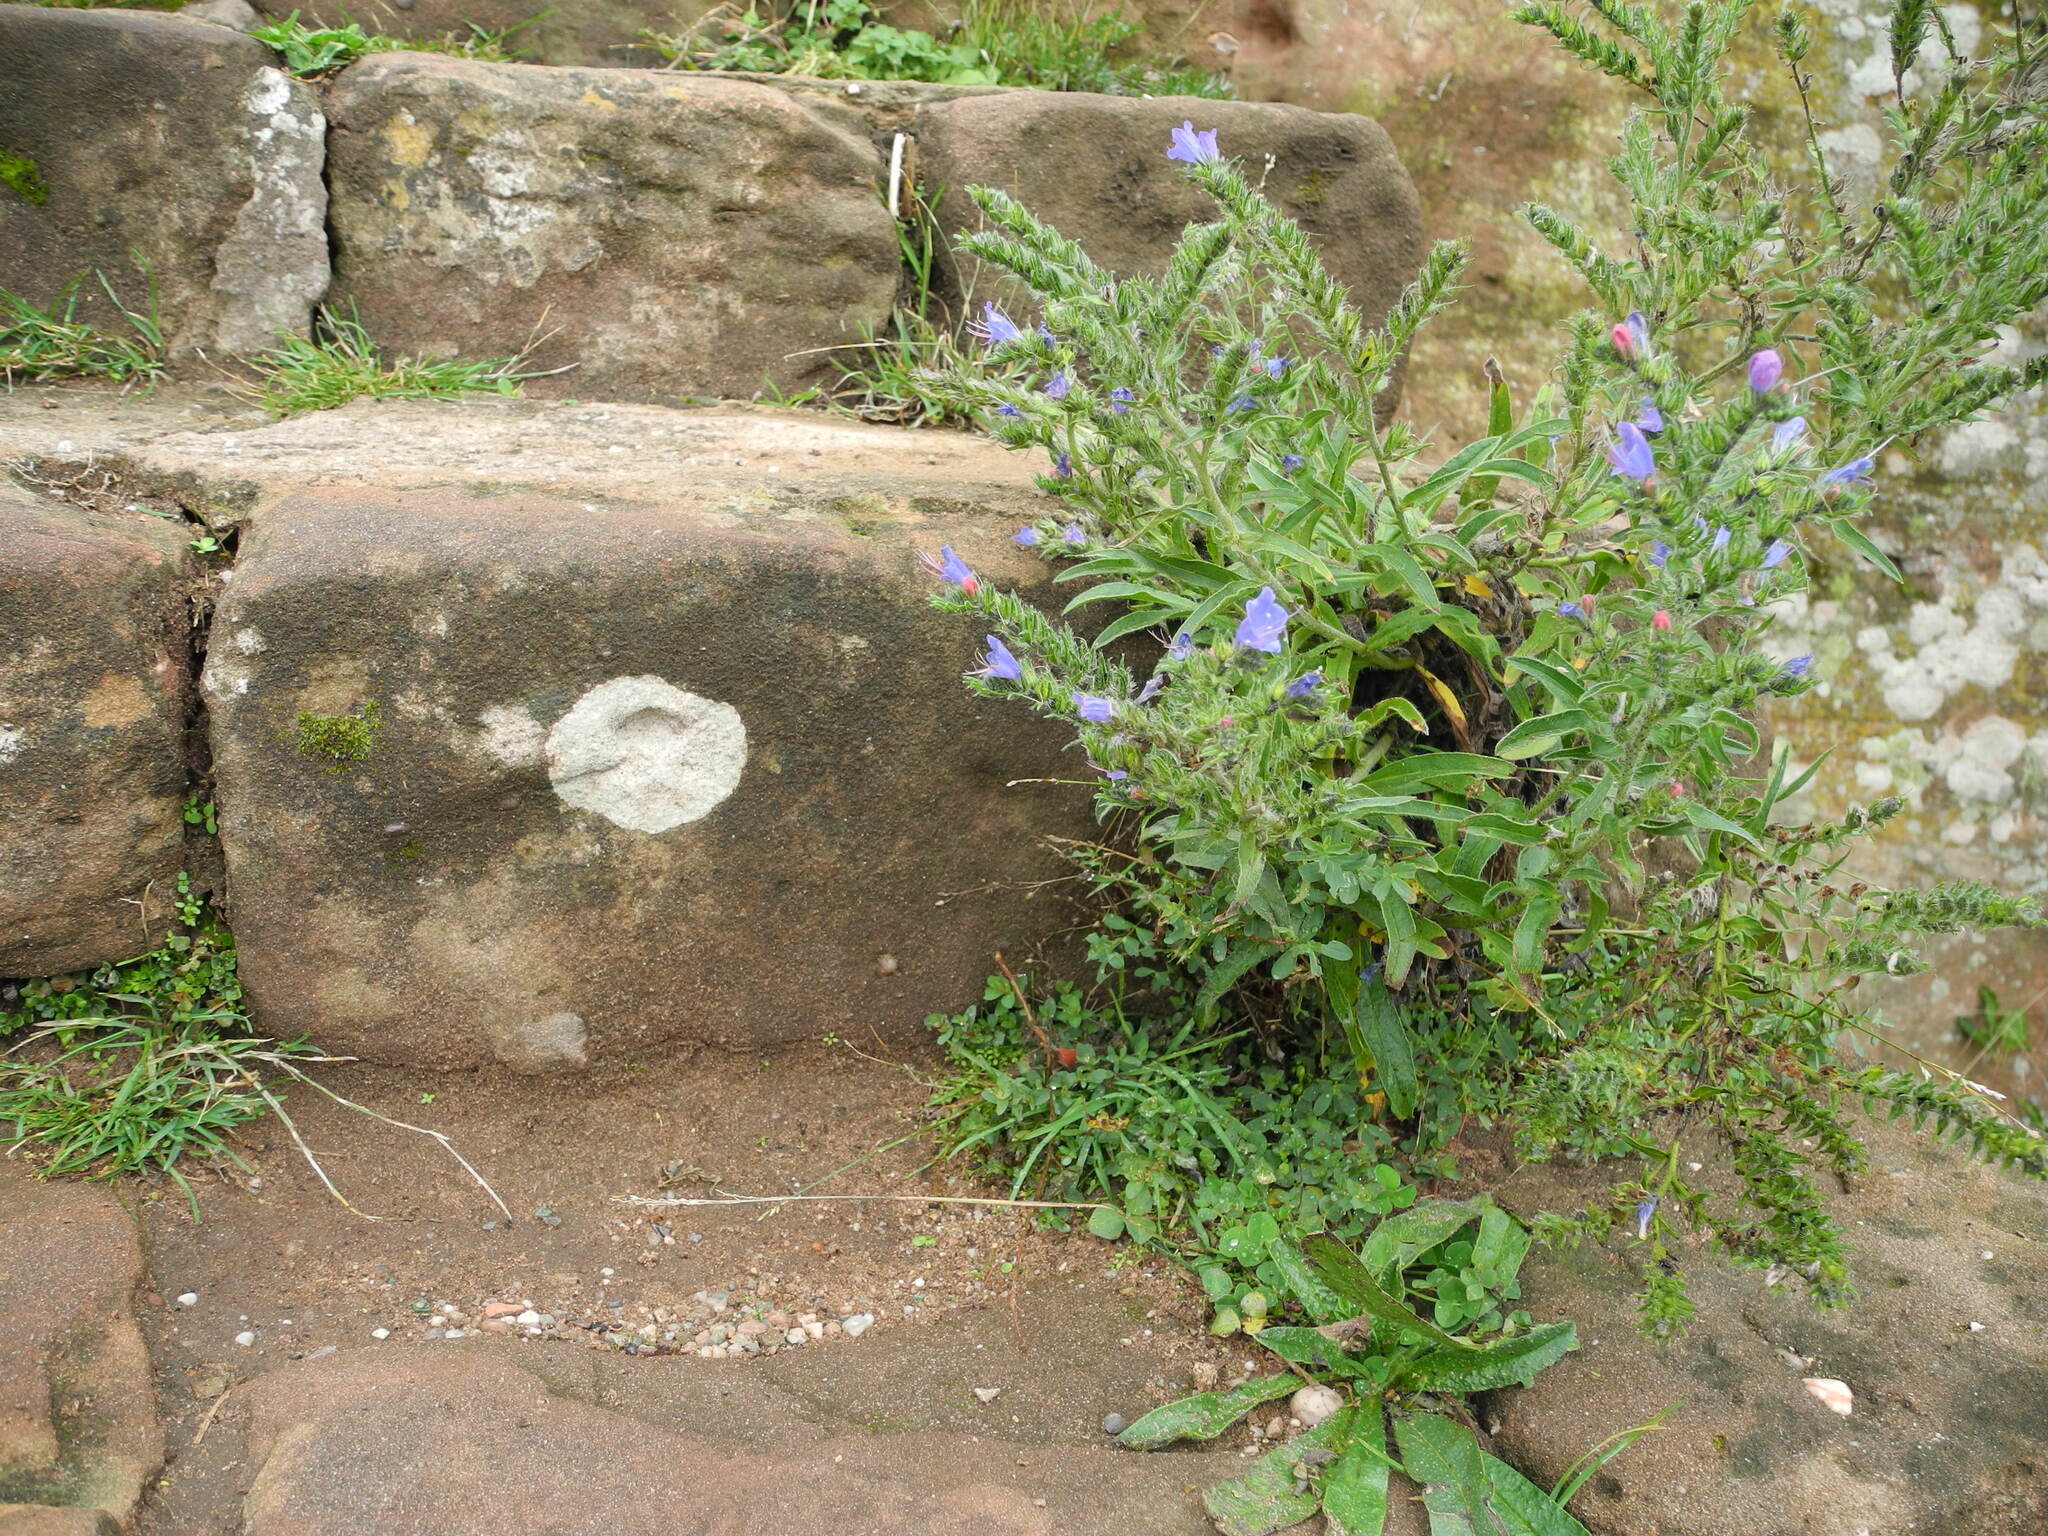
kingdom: Plantae
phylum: Tracheophyta
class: Magnoliopsida
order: Boraginales
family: Boraginaceae
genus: Echium
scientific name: Echium vulgare
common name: Common viper's bugloss
